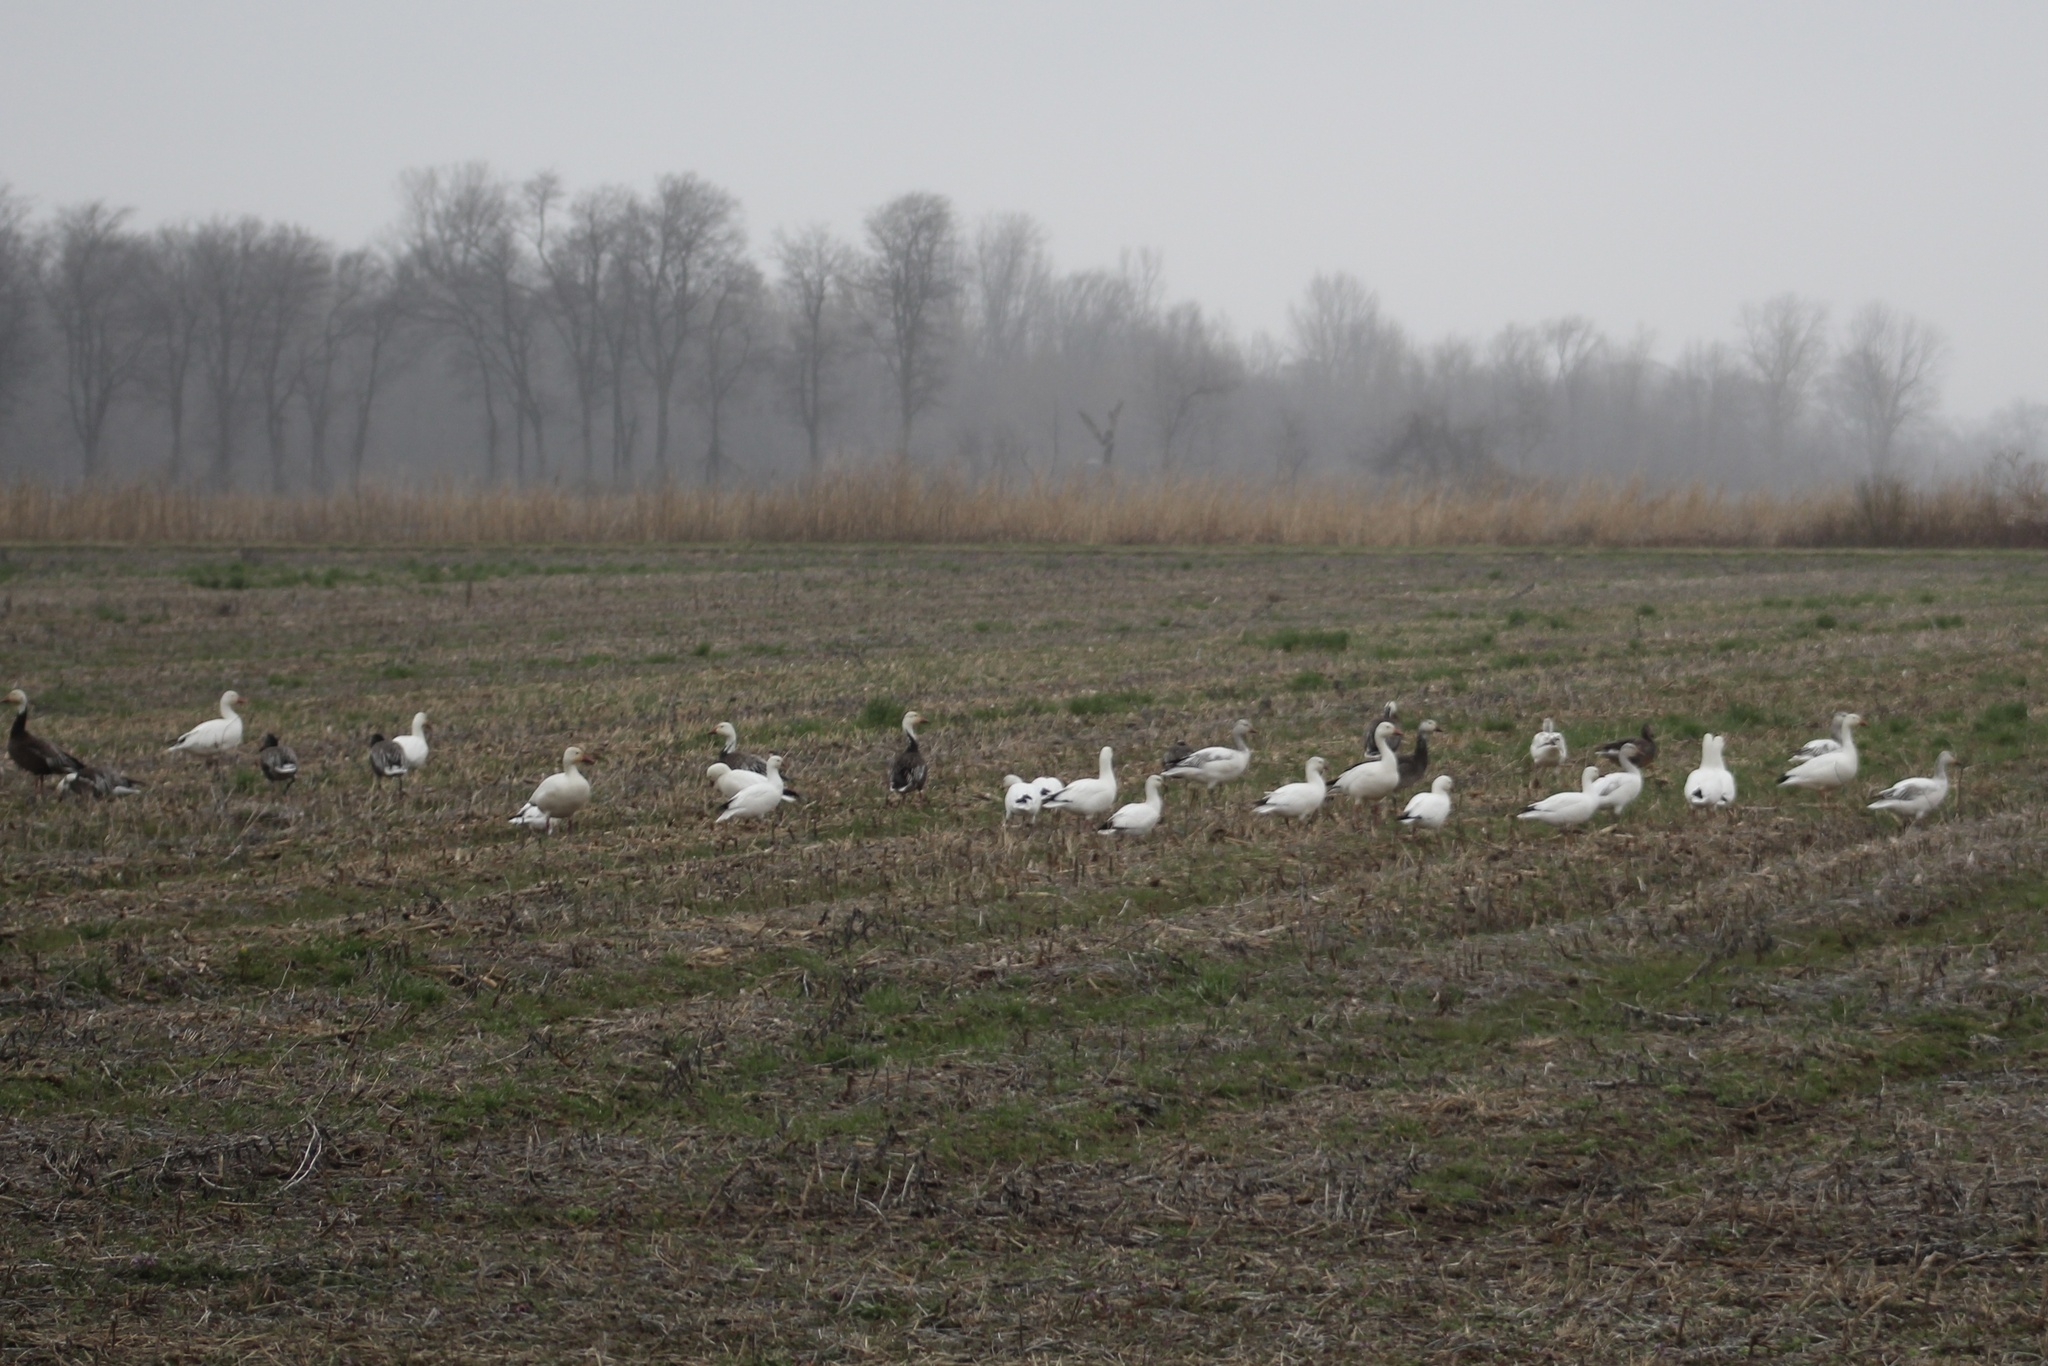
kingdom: Animalia
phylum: Chordata
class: Aves
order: Anseriformes
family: Anatidae
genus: Anser
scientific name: Anser rossii
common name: Ross's goose
